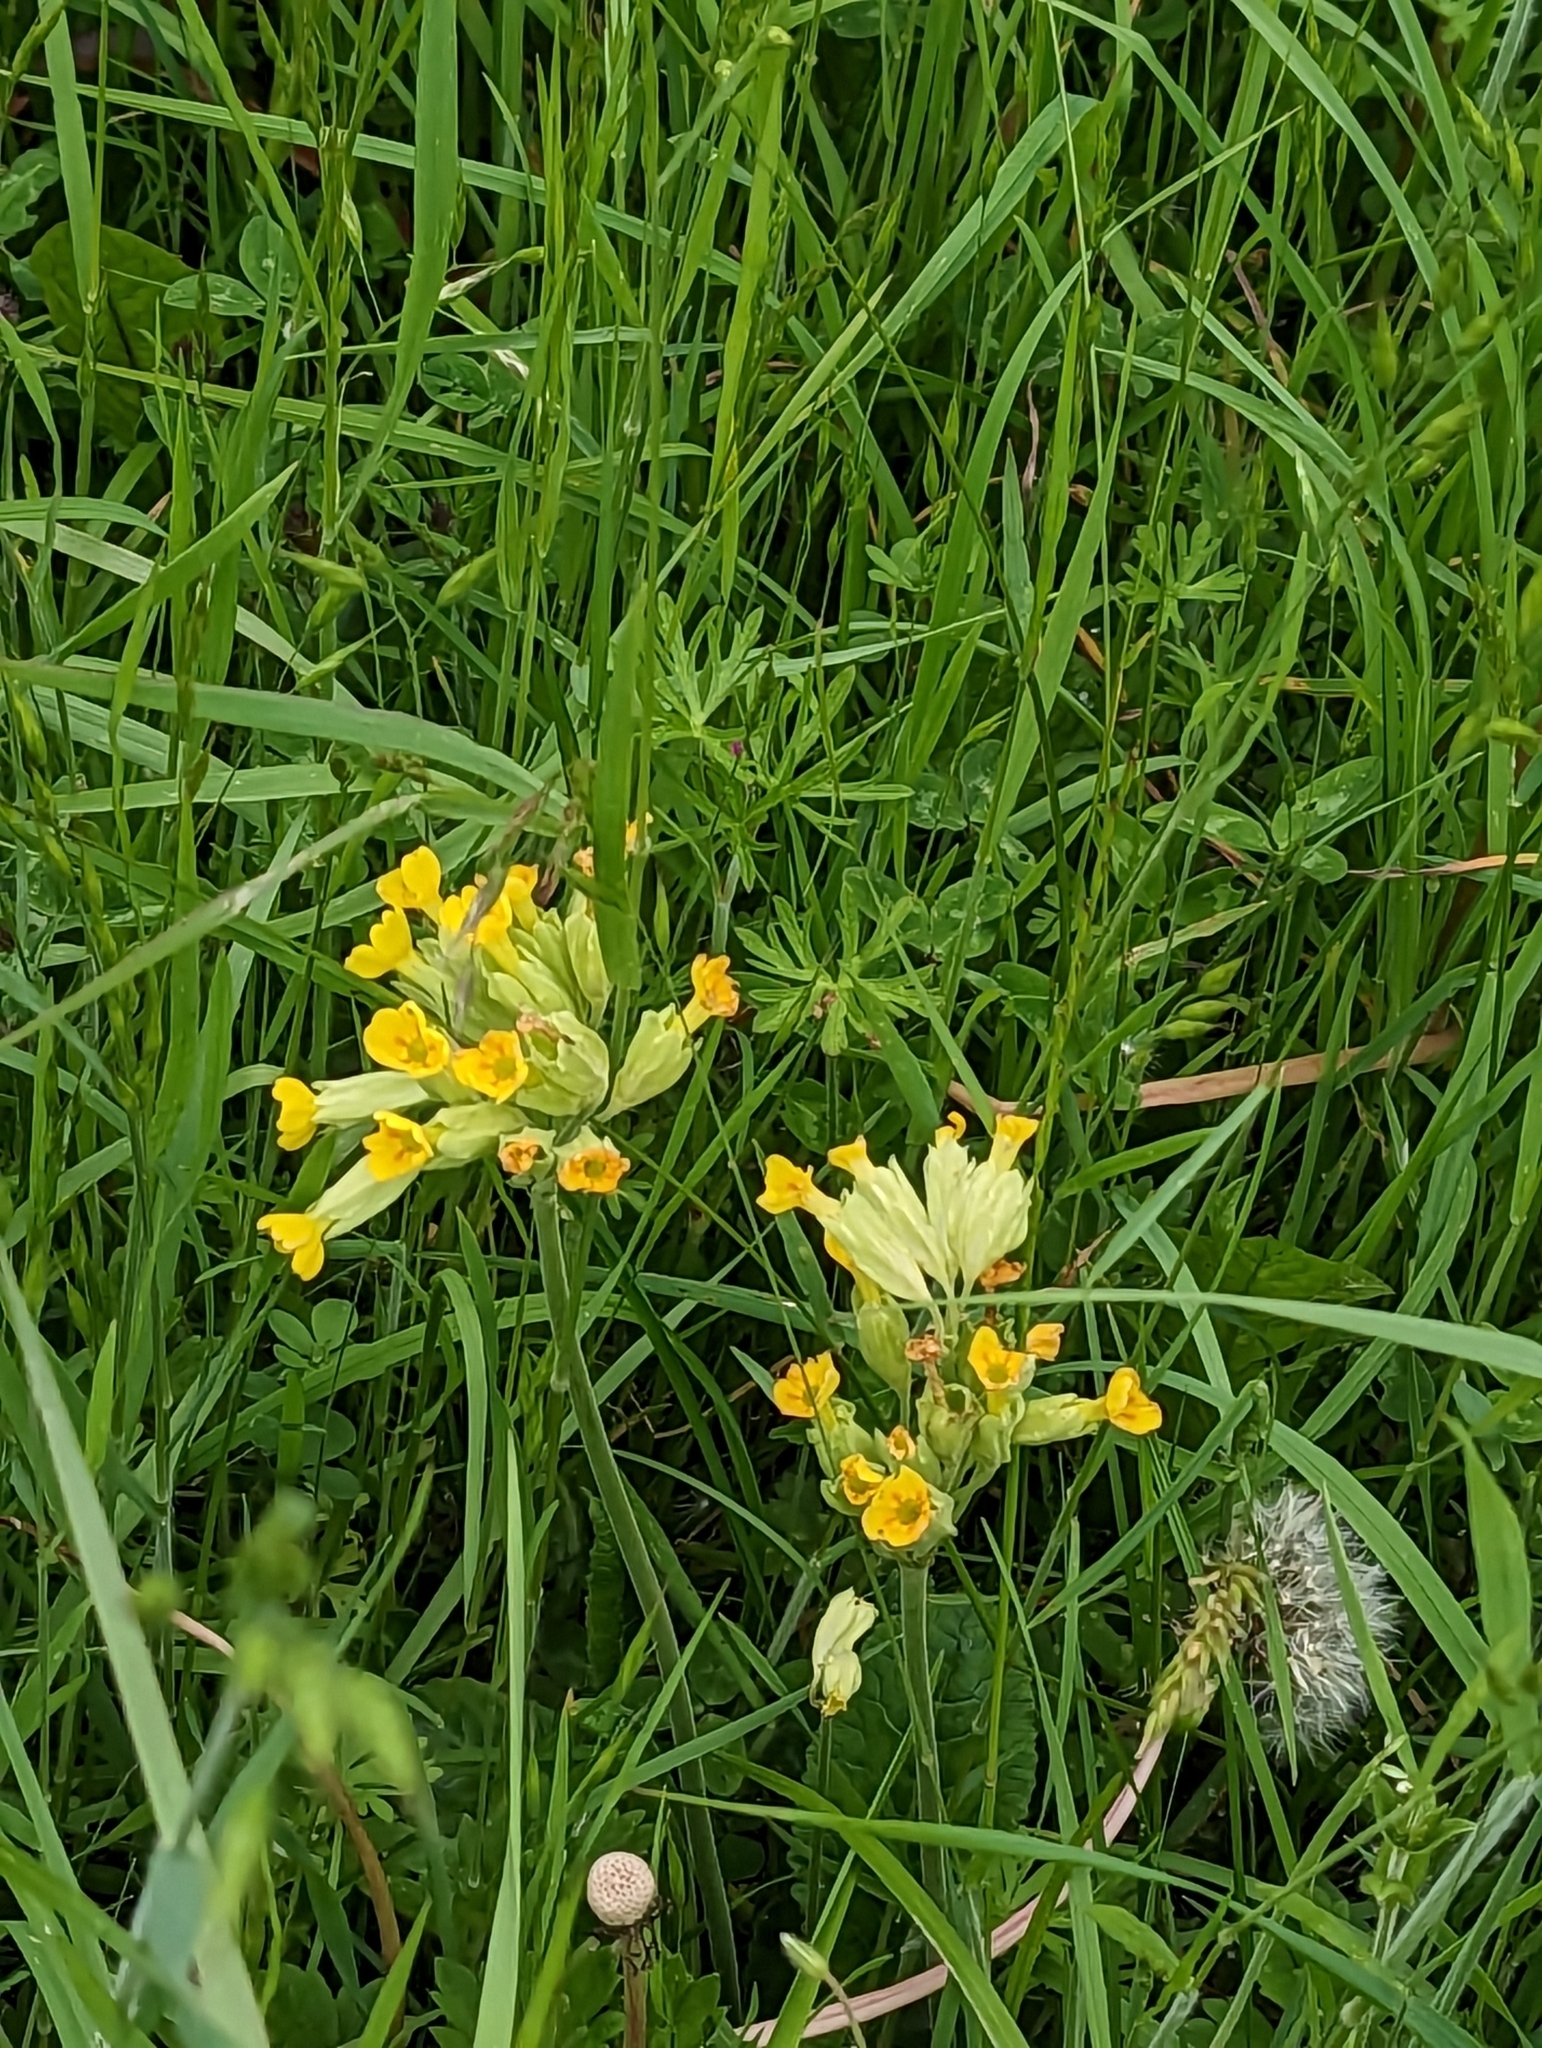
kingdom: Plantae
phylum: Tracheophyta
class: Magnoliopsida
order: Ericales
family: Primulaceae
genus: Primula
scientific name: Primula veris
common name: Cowslip
